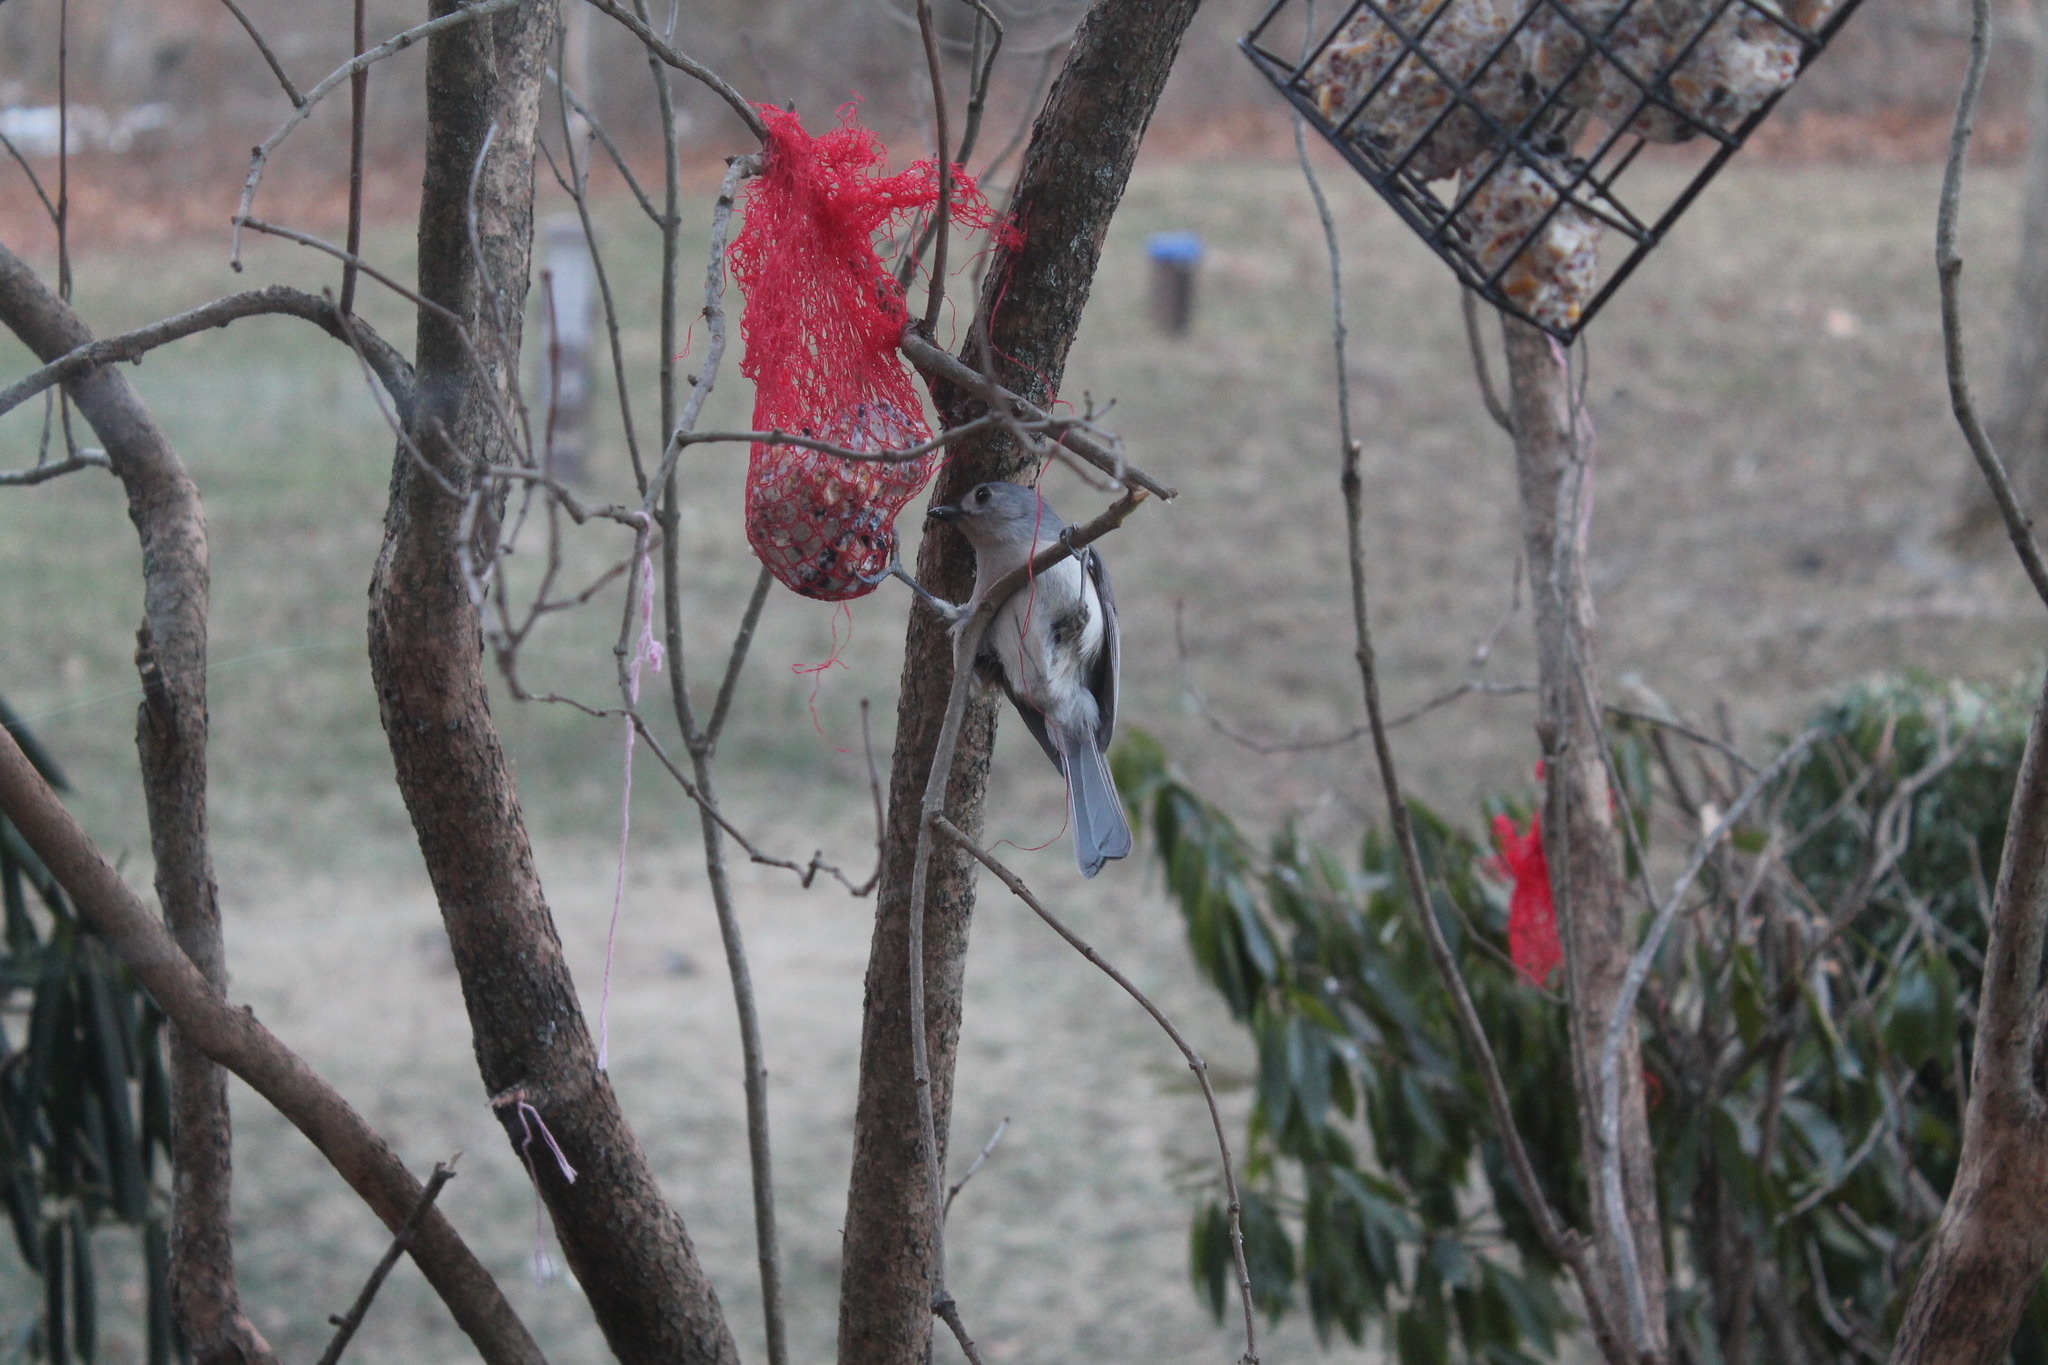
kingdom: Animalia
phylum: Chordata
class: Aves
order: Passeriformes
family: Paridae
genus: Baeolophus
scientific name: Baeolophus bicolor
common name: Tufted titmouse
